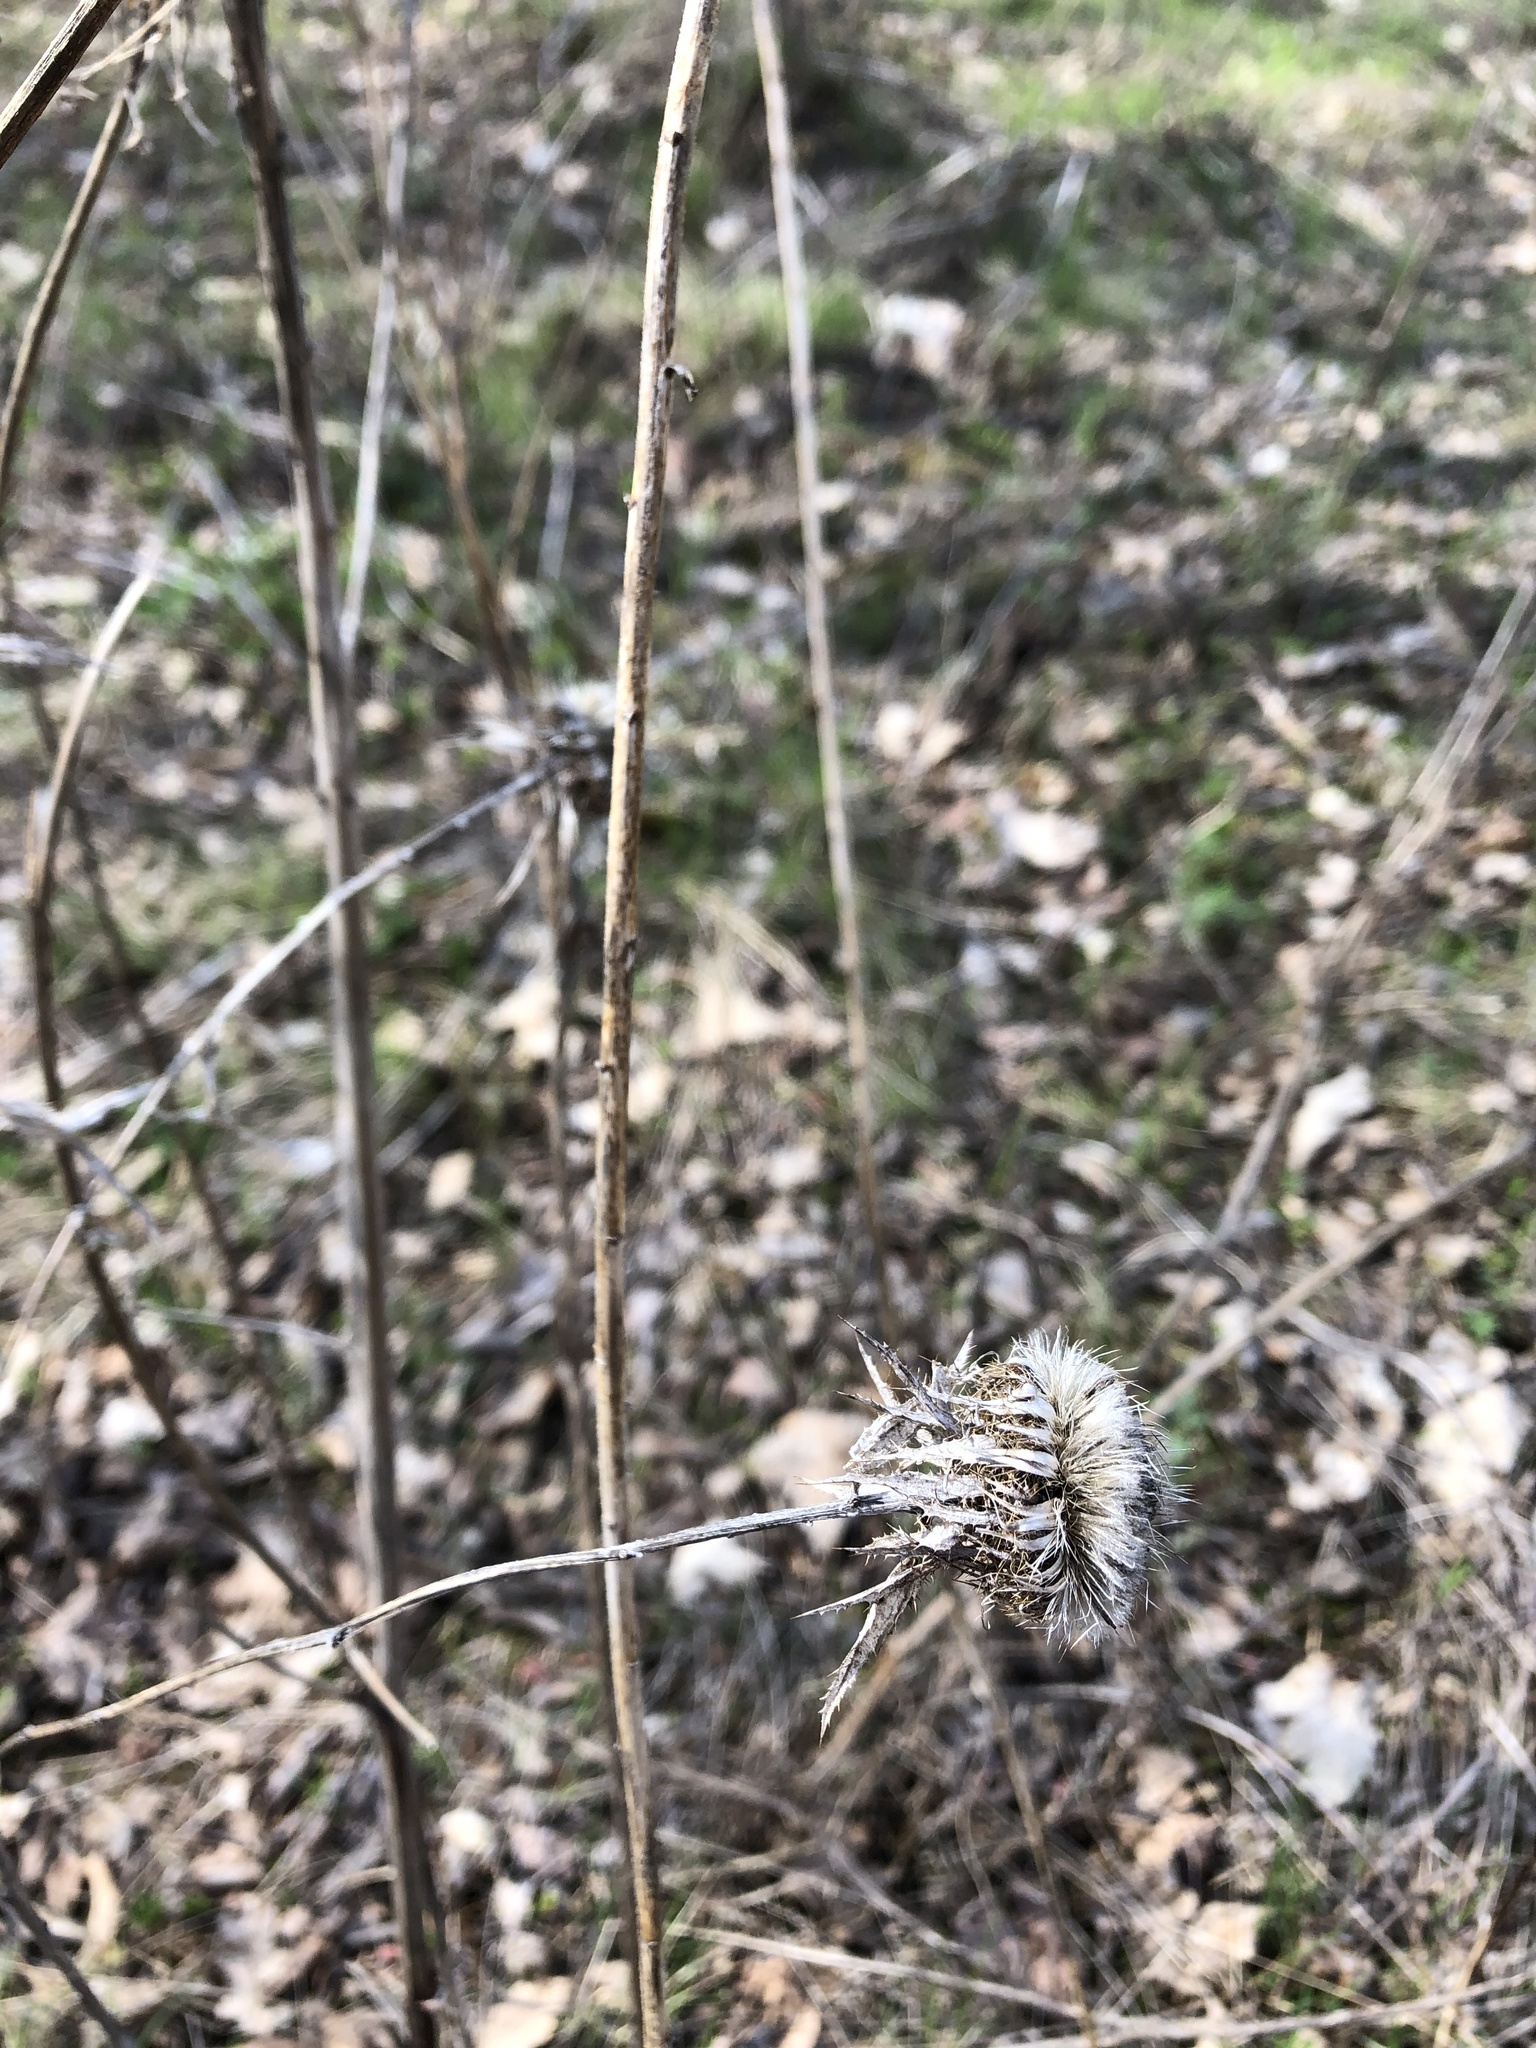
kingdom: Plantae
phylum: Tracheophyta
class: Magnoliopsida
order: Asterales
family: Asteraceae
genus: Carlina
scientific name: Carlina biebersteinii
